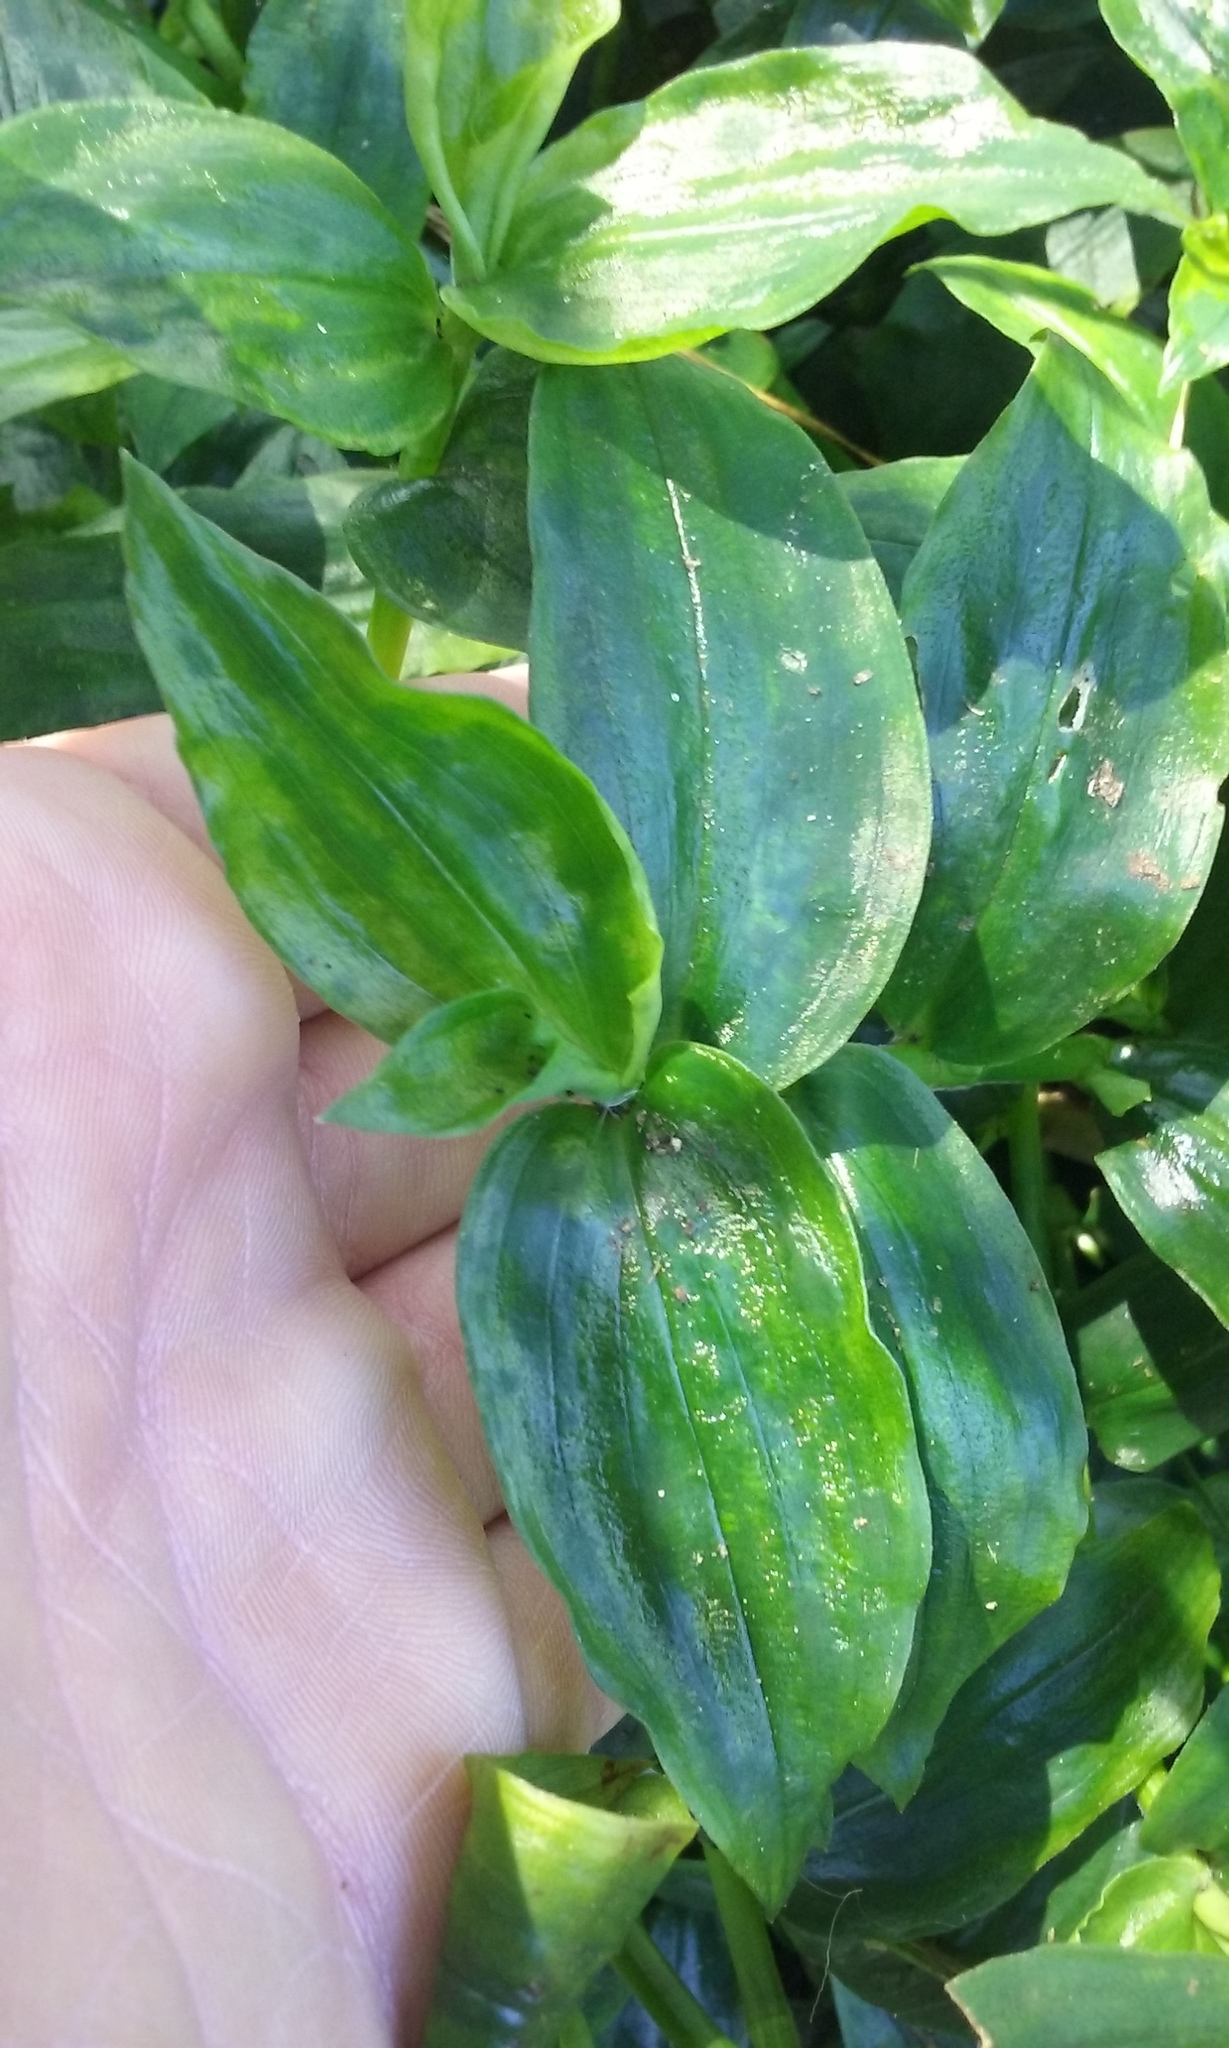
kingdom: Plantae
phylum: Tracheophyta
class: Liliopsida
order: Commelinales
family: Commelinaceae
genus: Tradescantia
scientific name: Tradescantia fluminensis
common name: Wandering-jew
